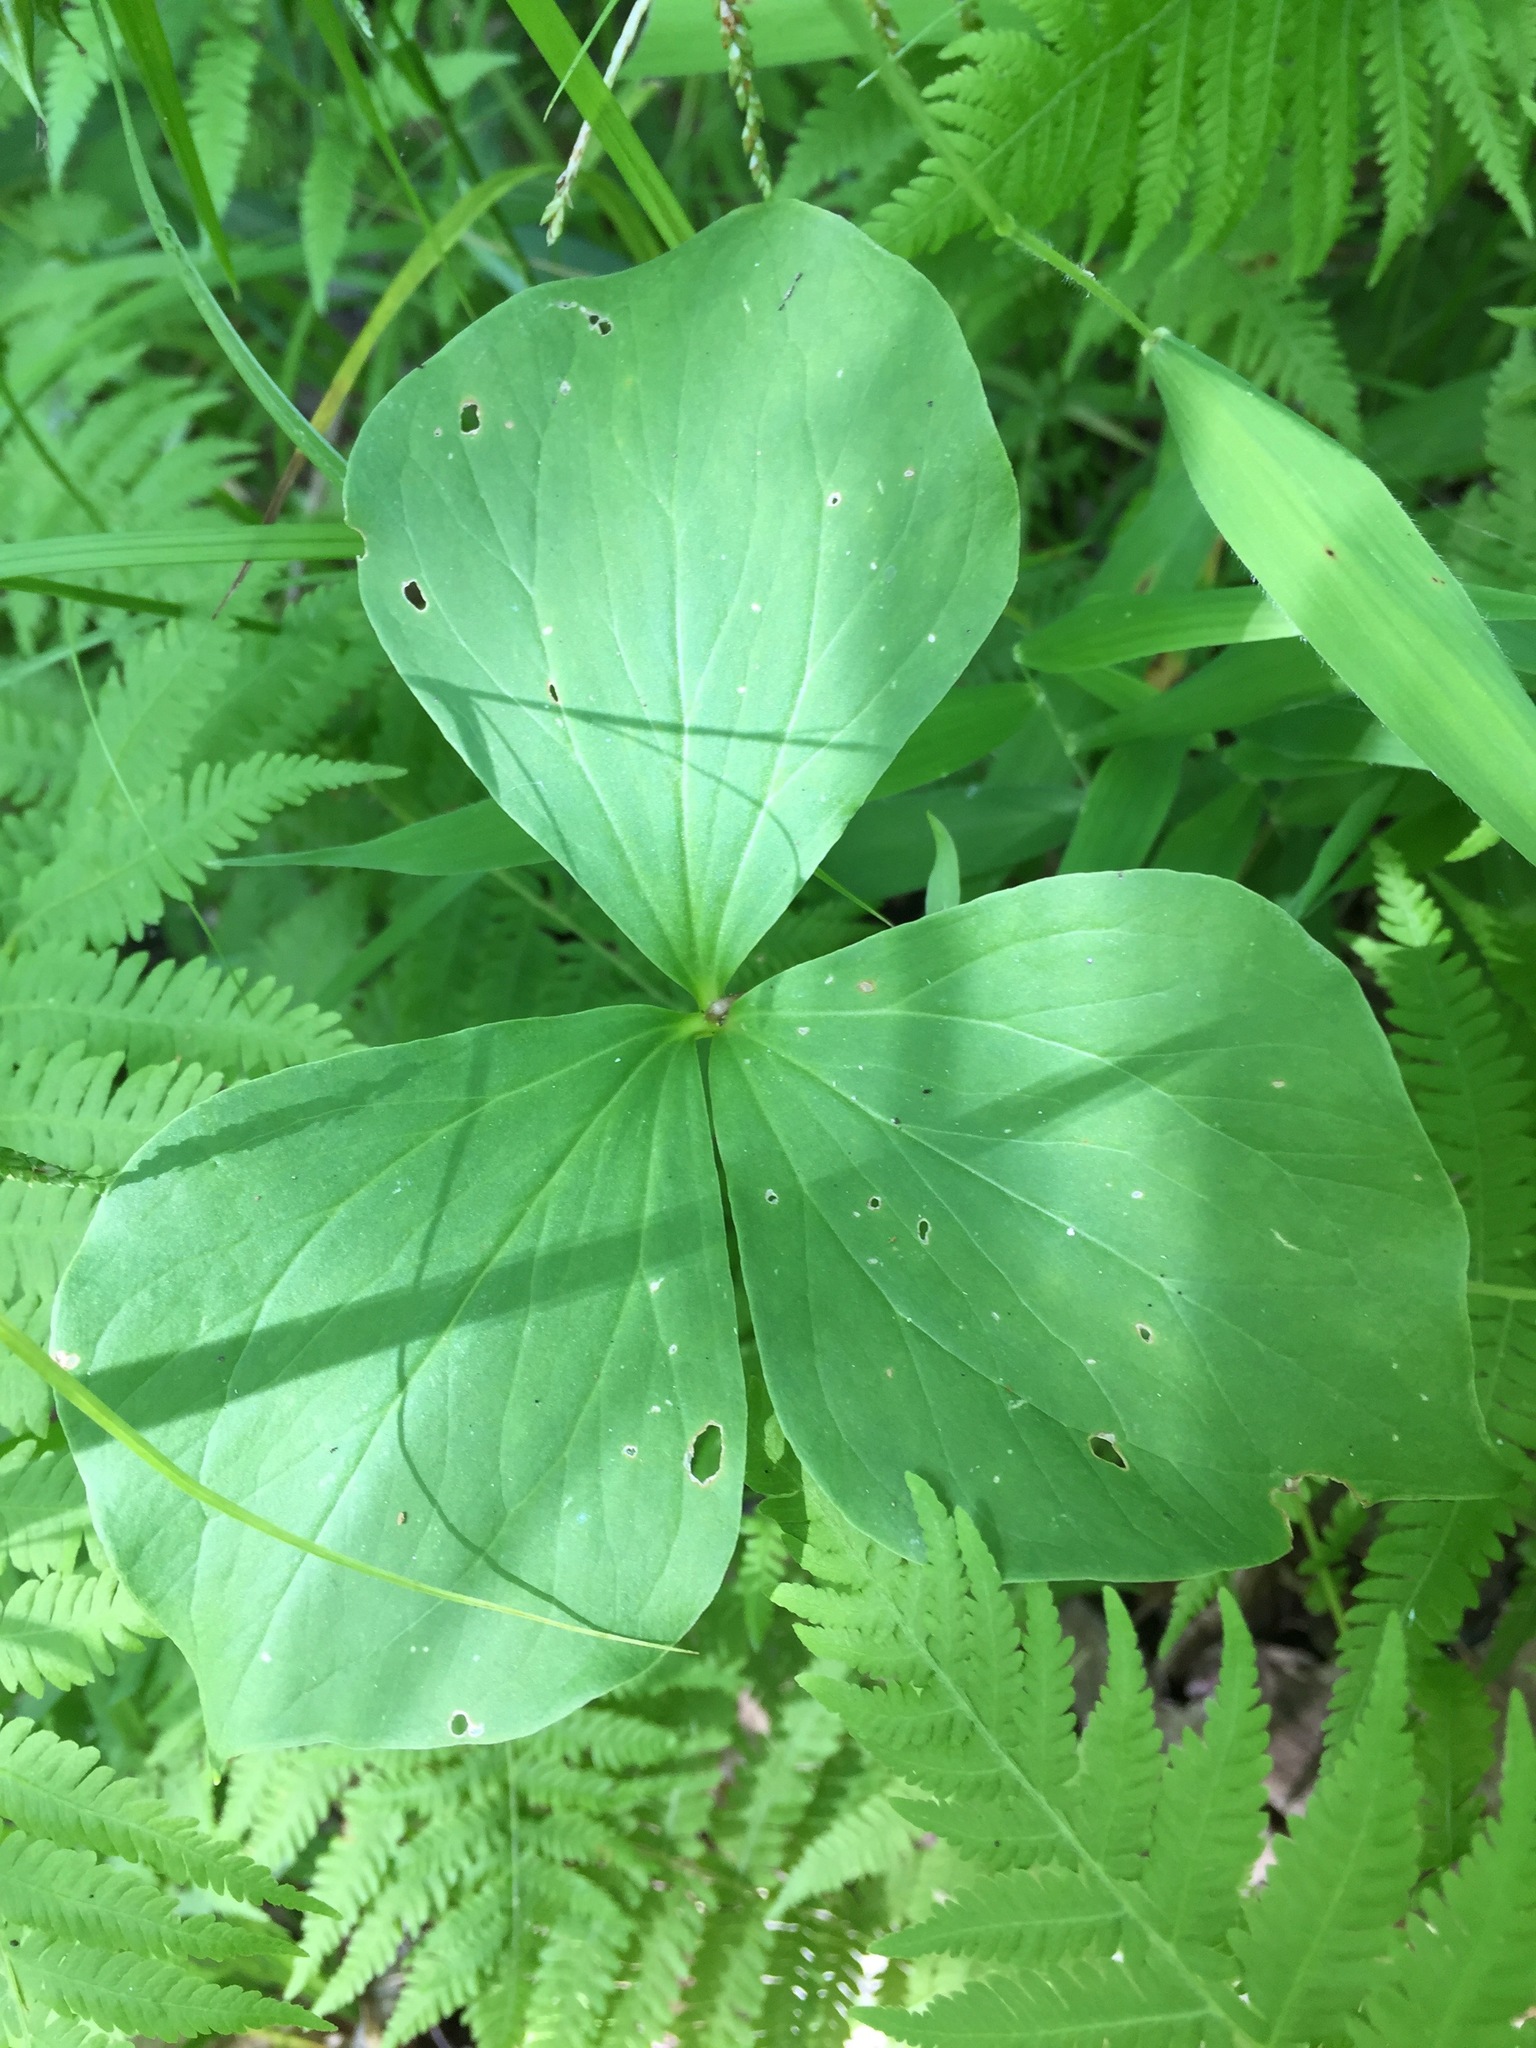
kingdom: Plantae
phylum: Tracheophyta
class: Liliopsida
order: Liliales
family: Melanthiaceae
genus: Trillium
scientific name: Trillium cernuum
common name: Nodding trillium
